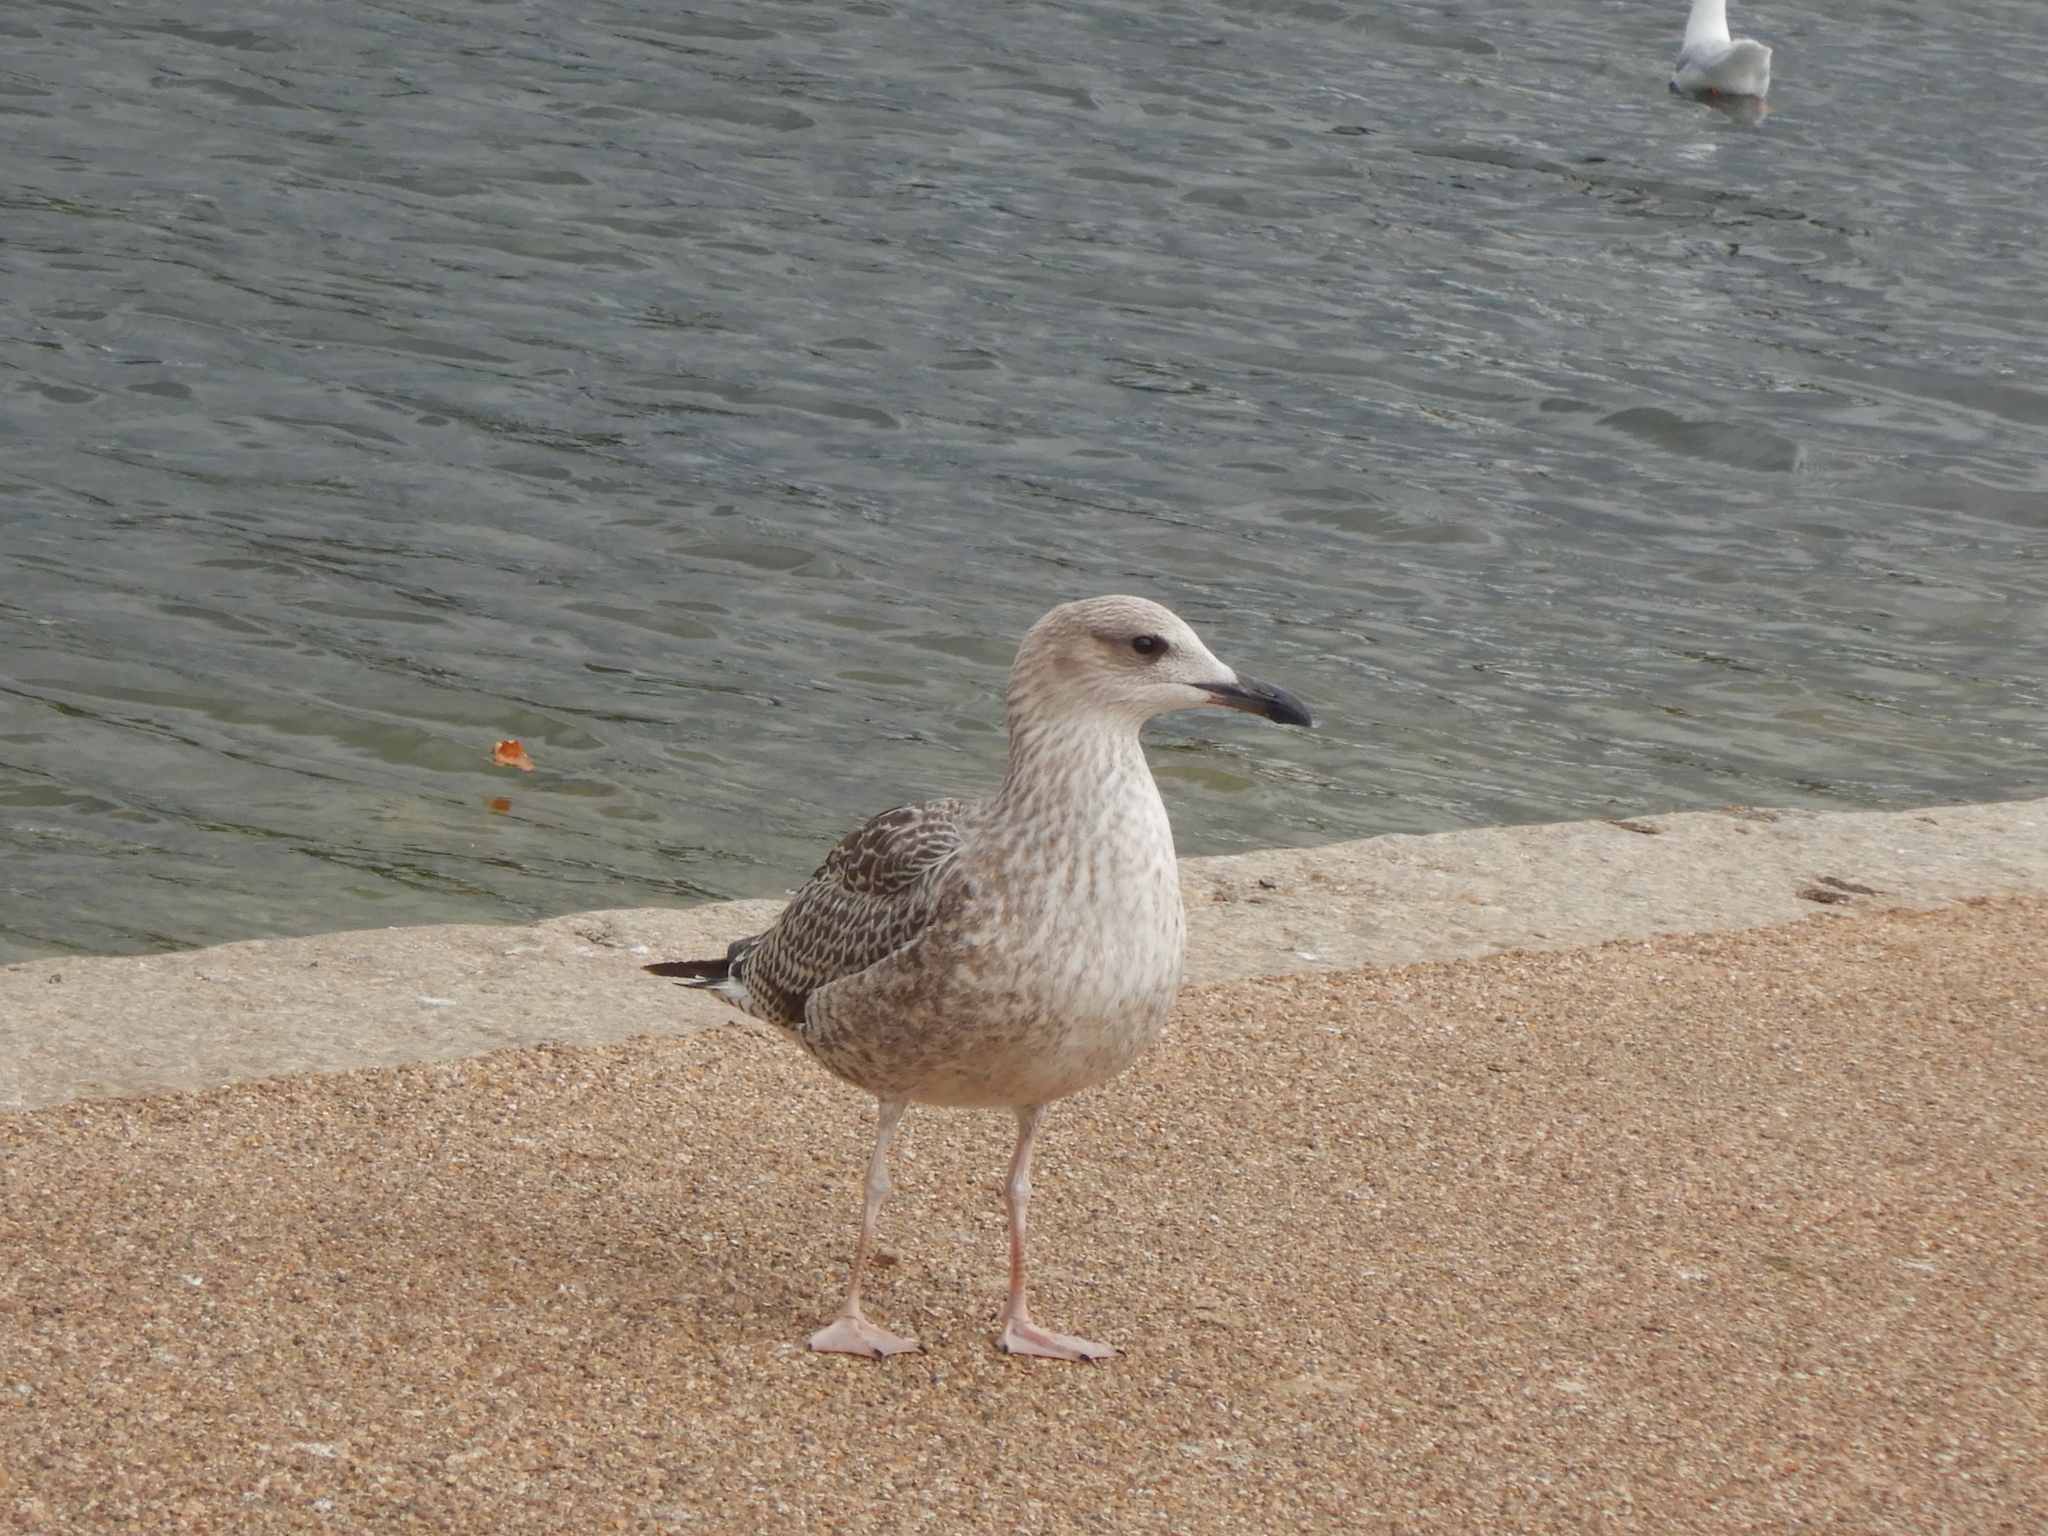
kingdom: Animalia
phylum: Chordata
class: Aves
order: Charadriiformes
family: Laridae
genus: Larus
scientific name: Larus argentatus
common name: Herring gull
